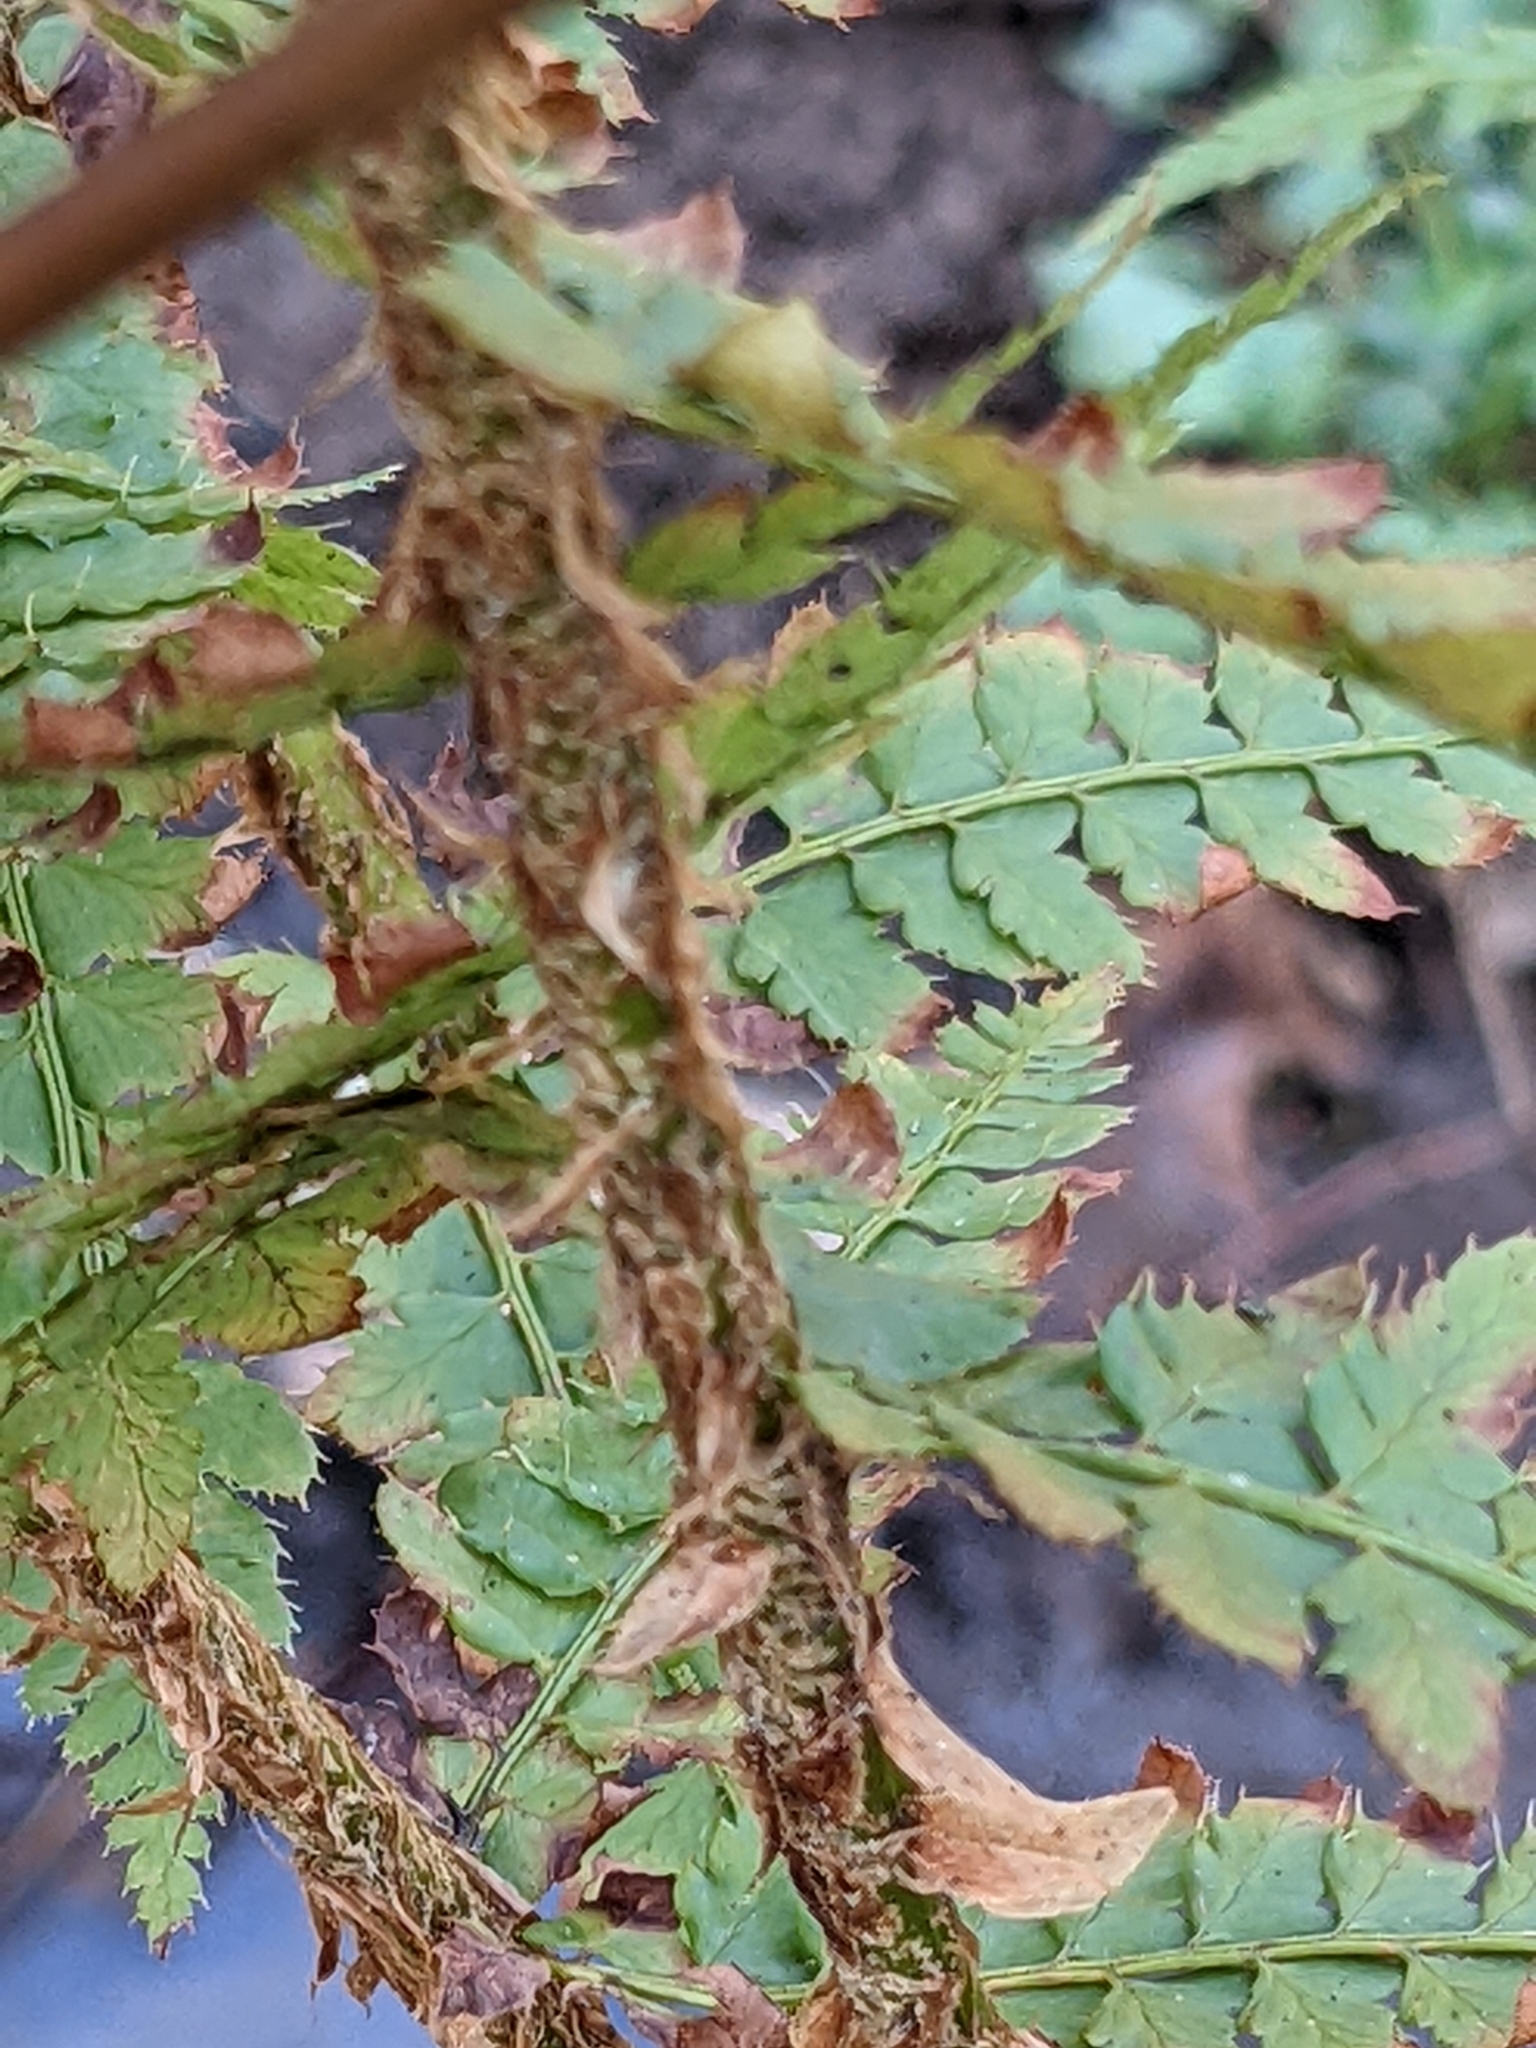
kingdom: Plantae
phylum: Tracheophyta
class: Polypodiopsida
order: Polypodiales
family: Dryopteridaceae
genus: Polystichum
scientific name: Polystichum setiferum
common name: Soft shield-fern
